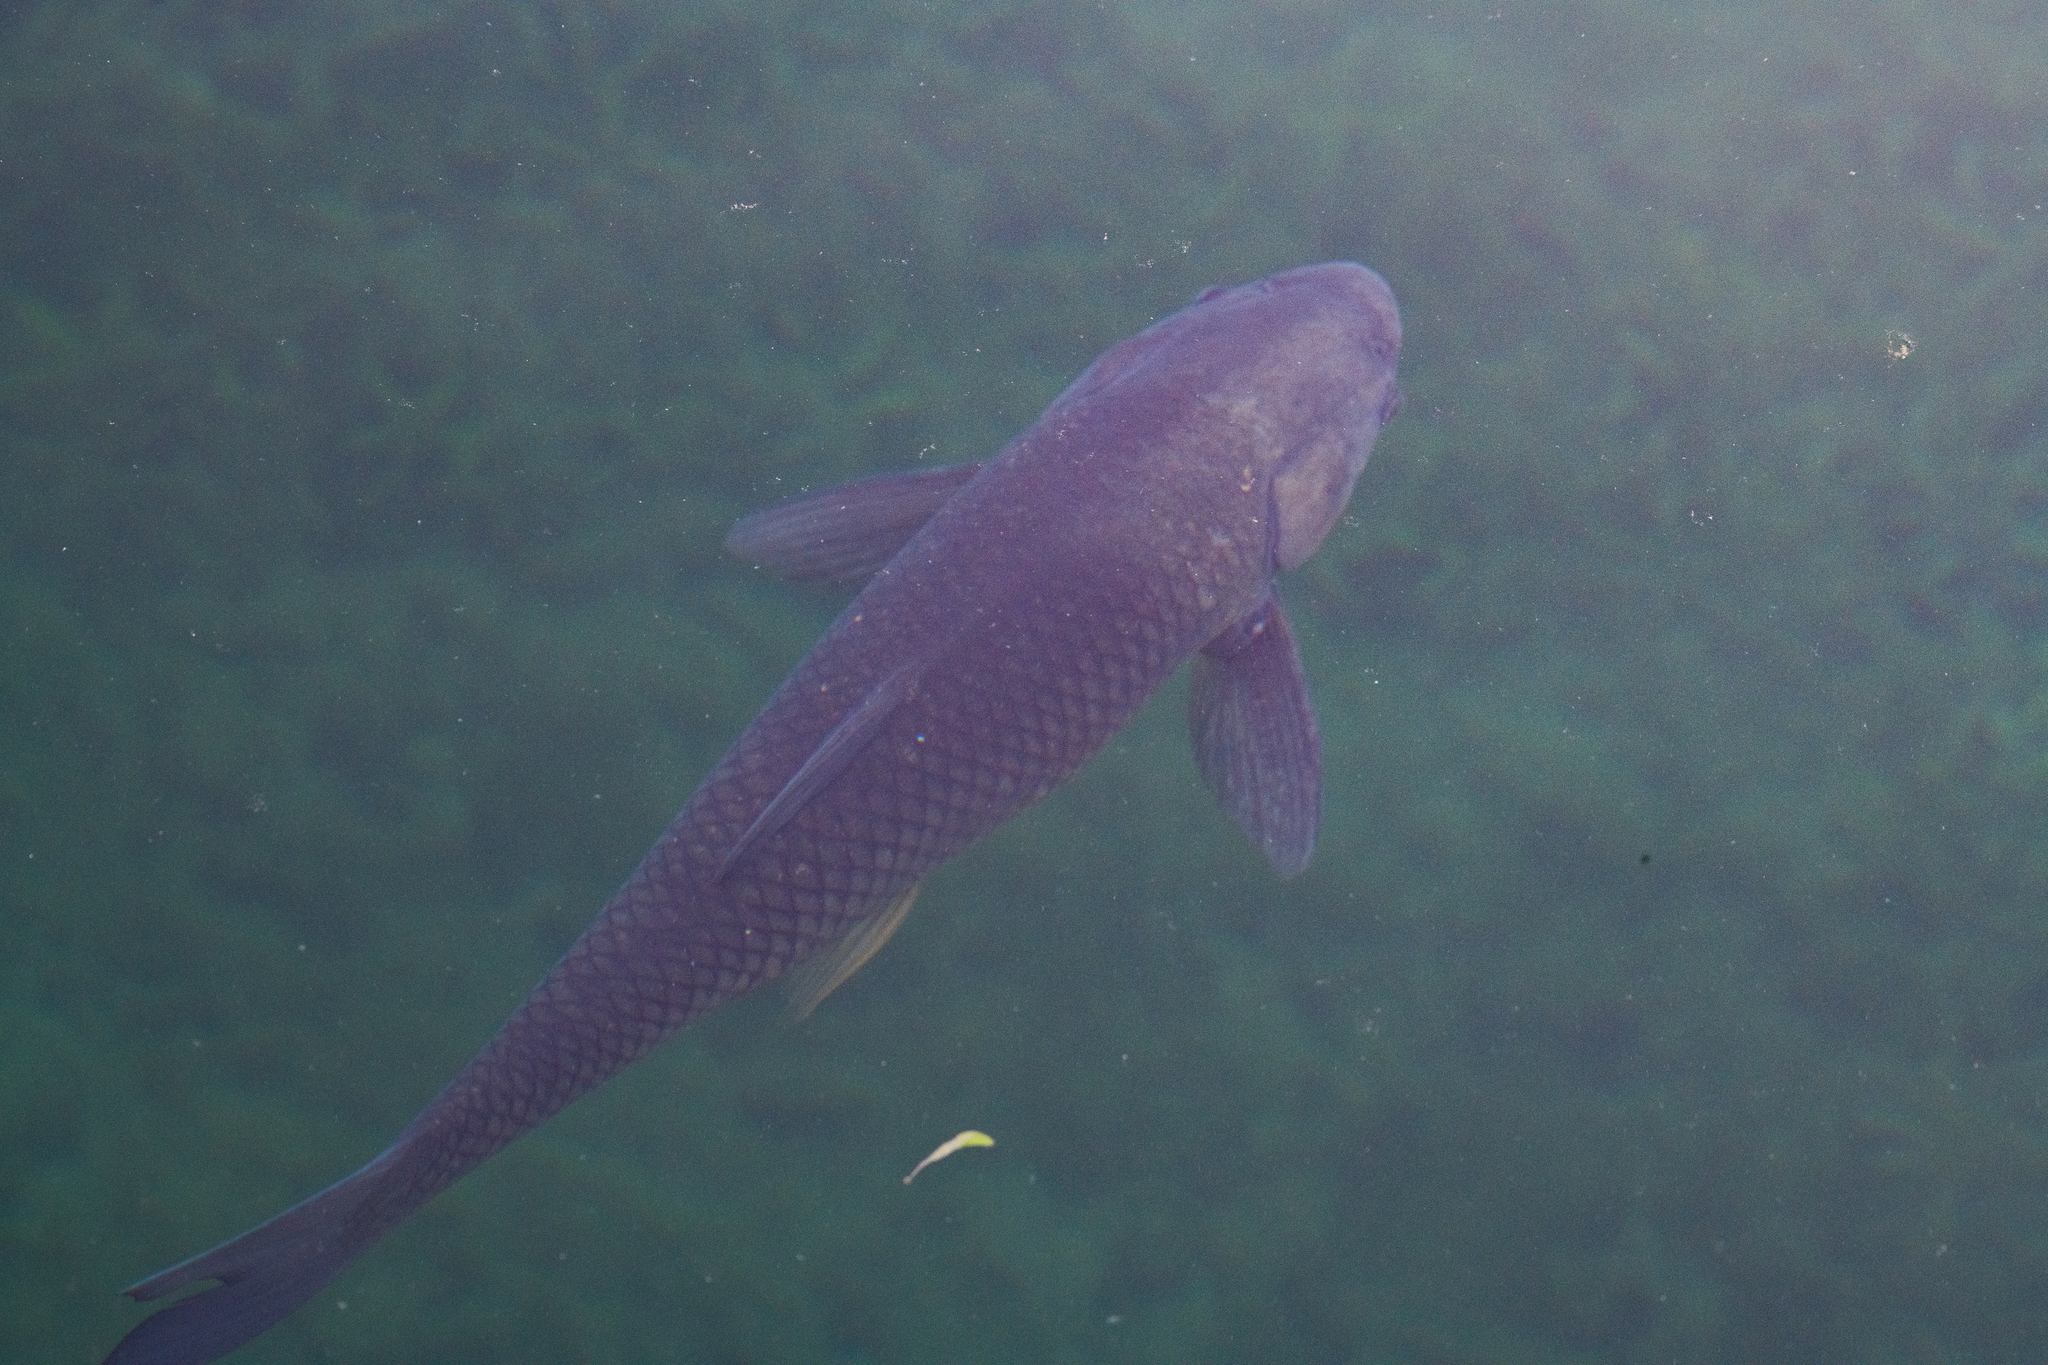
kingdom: Animalia
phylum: Chordata
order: Cypriniformes
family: Cyprinidae
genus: Ctenopharyngodon
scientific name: Ctenopharyngodon idella
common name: Grass carp
